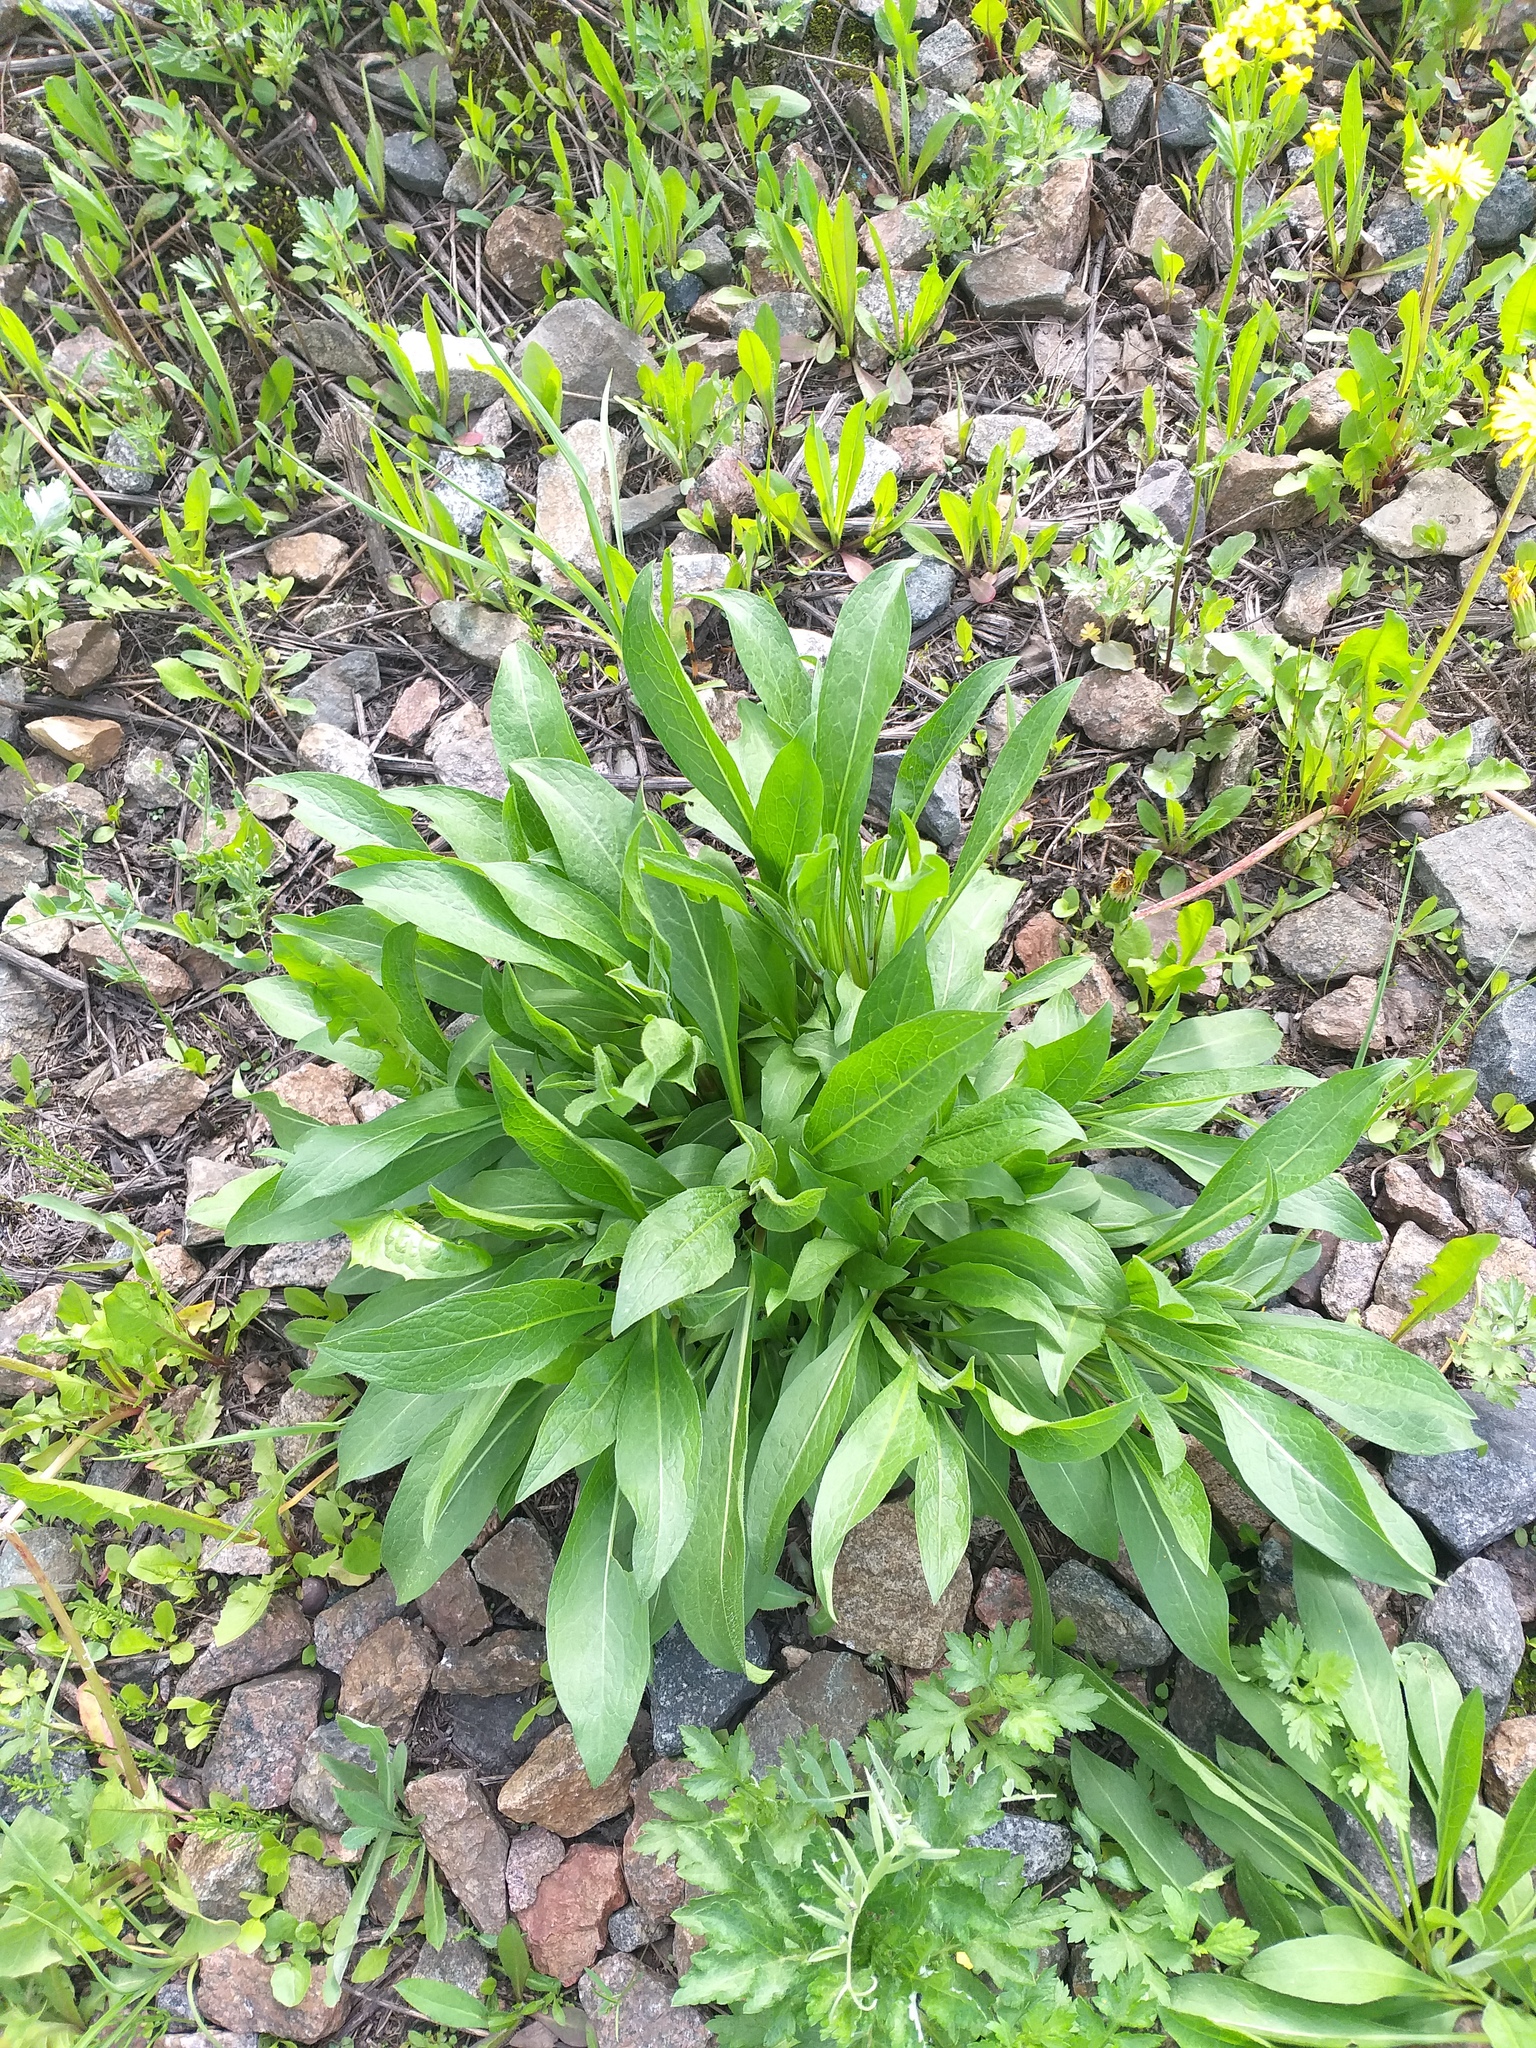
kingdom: Plantae
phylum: Tracheophyta
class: Magnoliopsida
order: Asterales
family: Asteraceae
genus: Centaurea
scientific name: Centaurea jacea
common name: Brown knapweed
